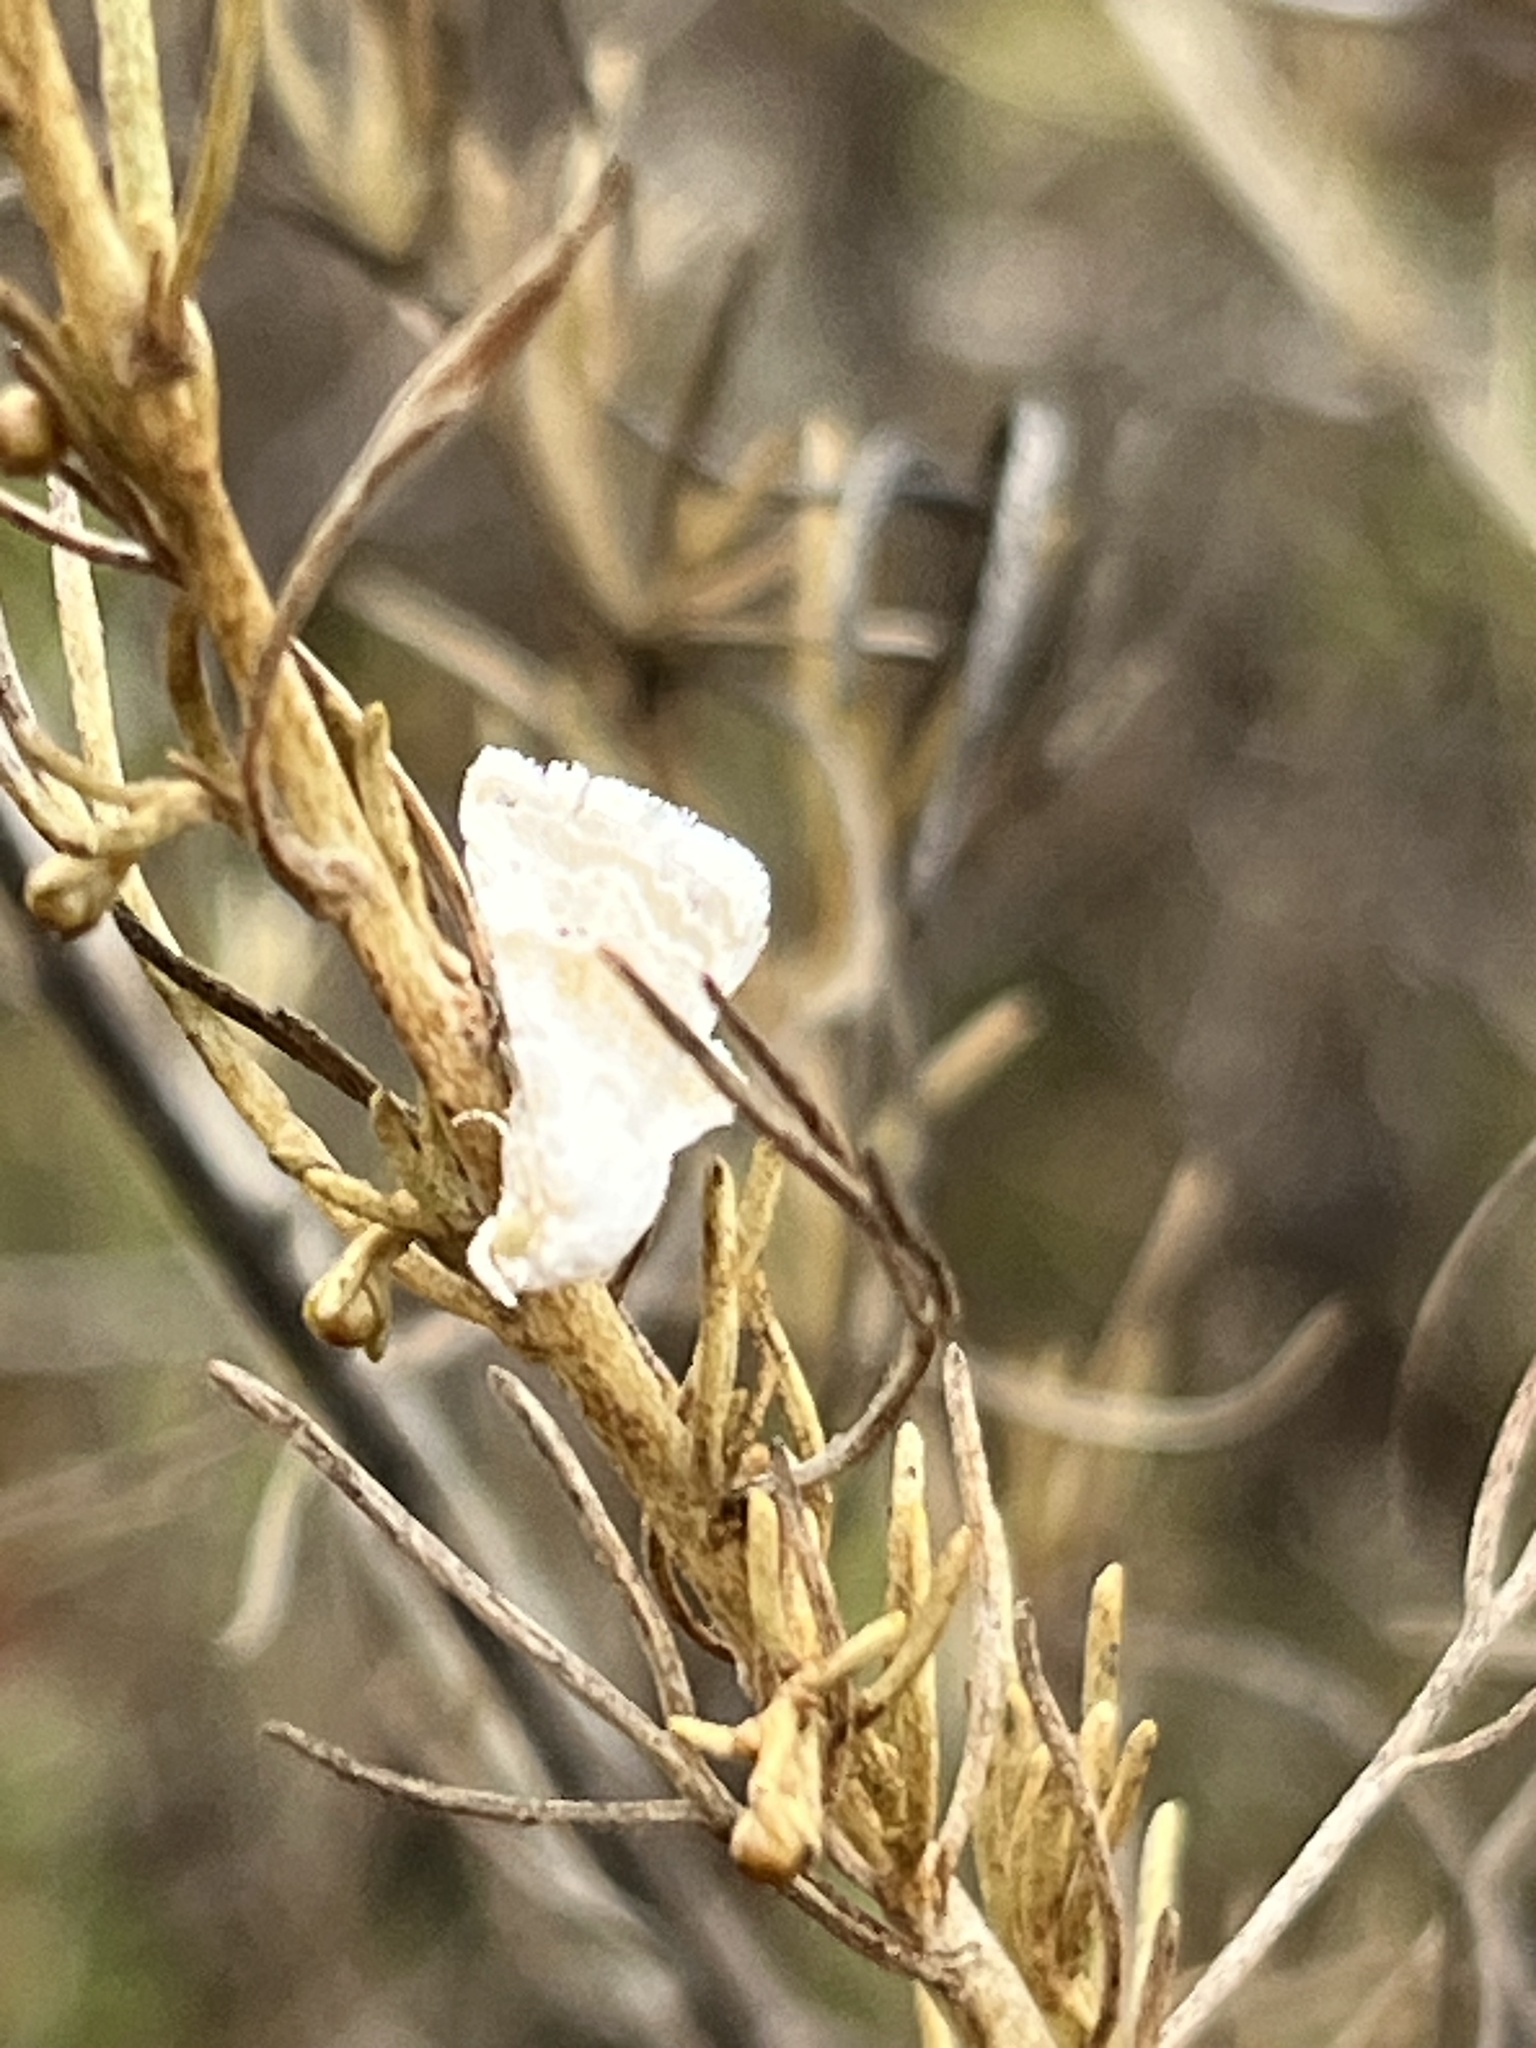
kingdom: Animalia
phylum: Arthropoda
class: Insecta
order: Lepidoptera
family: Noctuidae
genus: Eublemma
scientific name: Eublemma minima
